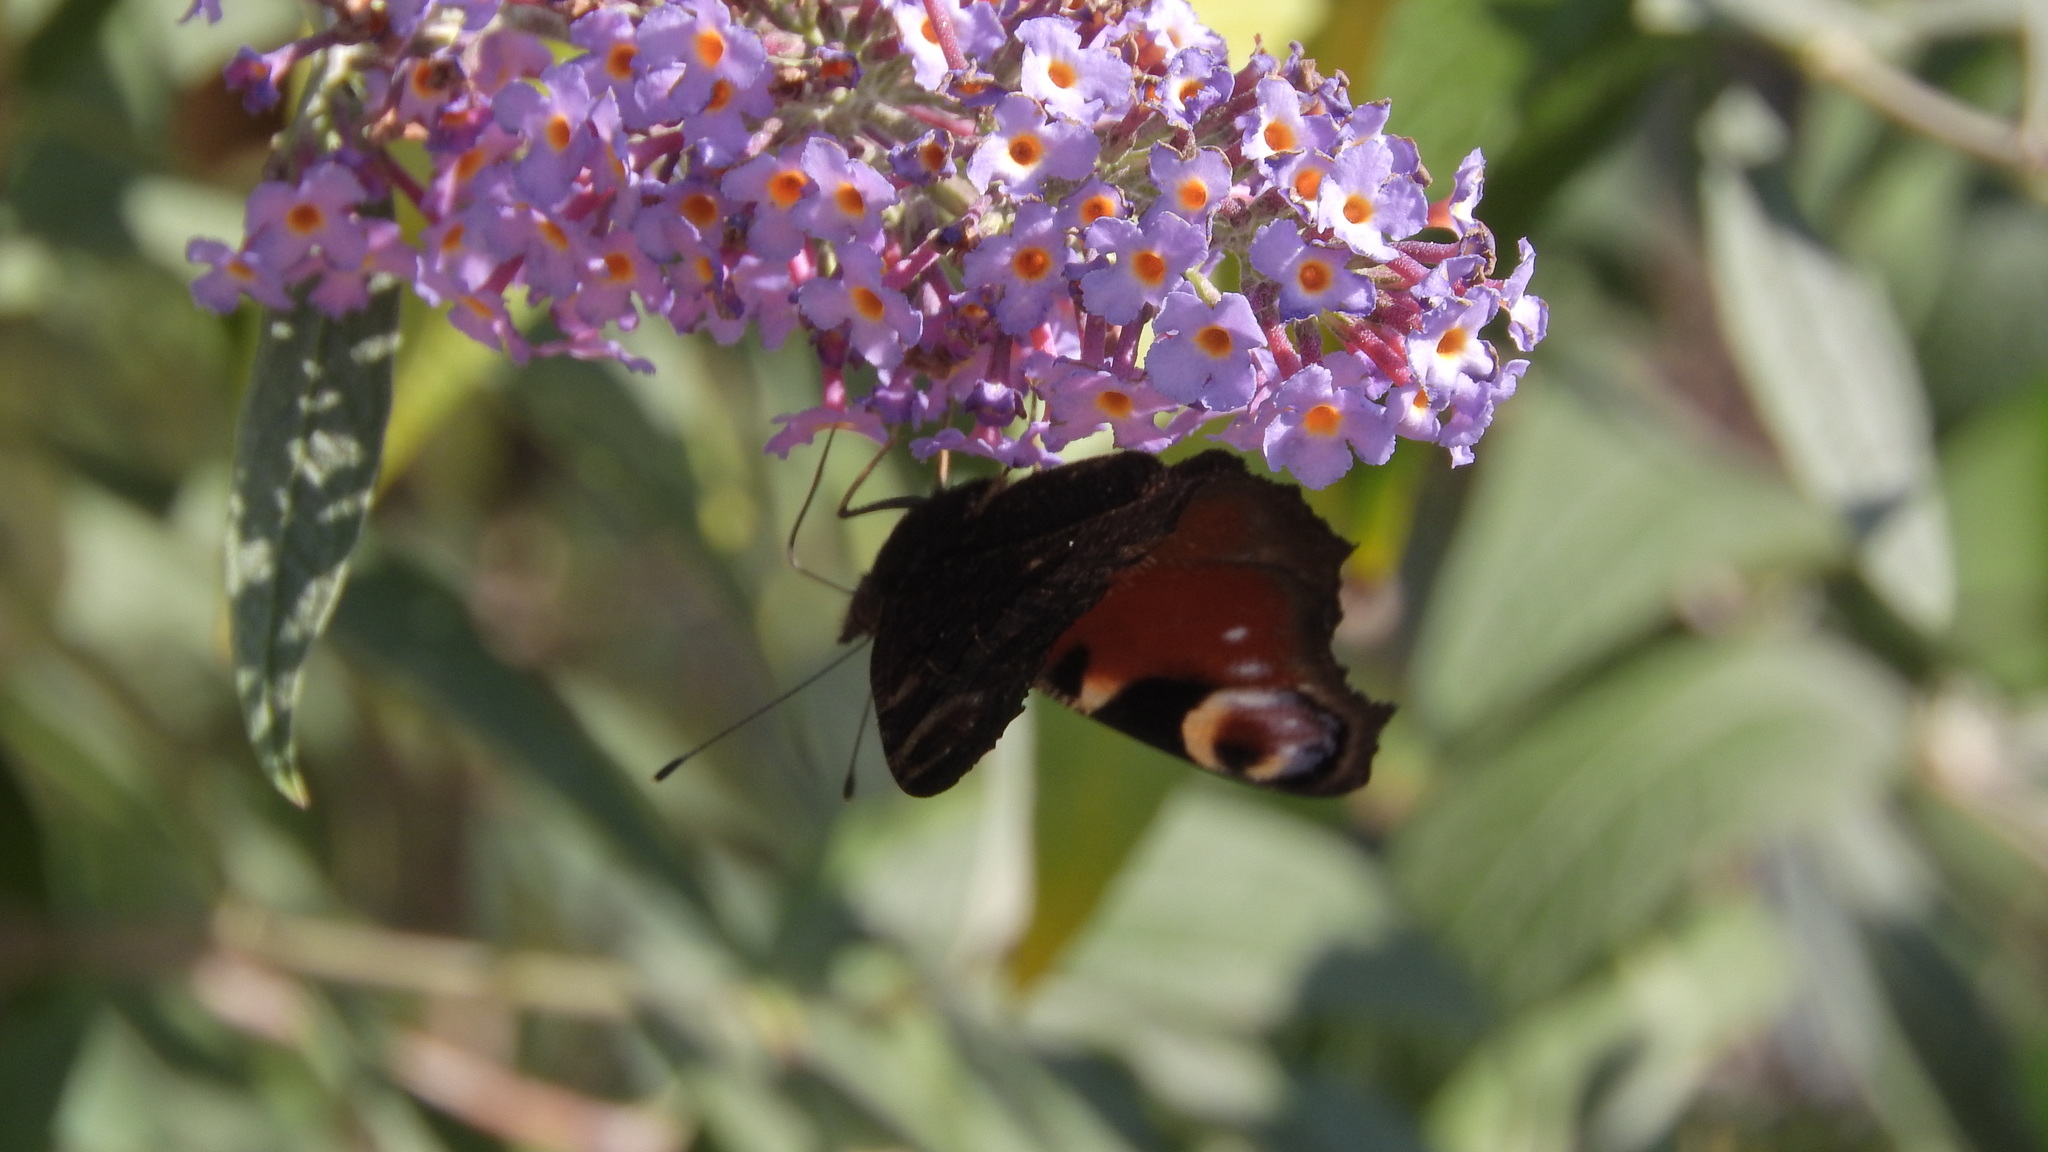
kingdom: Animalia
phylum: Arthropoda
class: Insecta
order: Lepidoptera
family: Nymphalidae
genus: Aglais
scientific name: Aglais io
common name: Peacock
